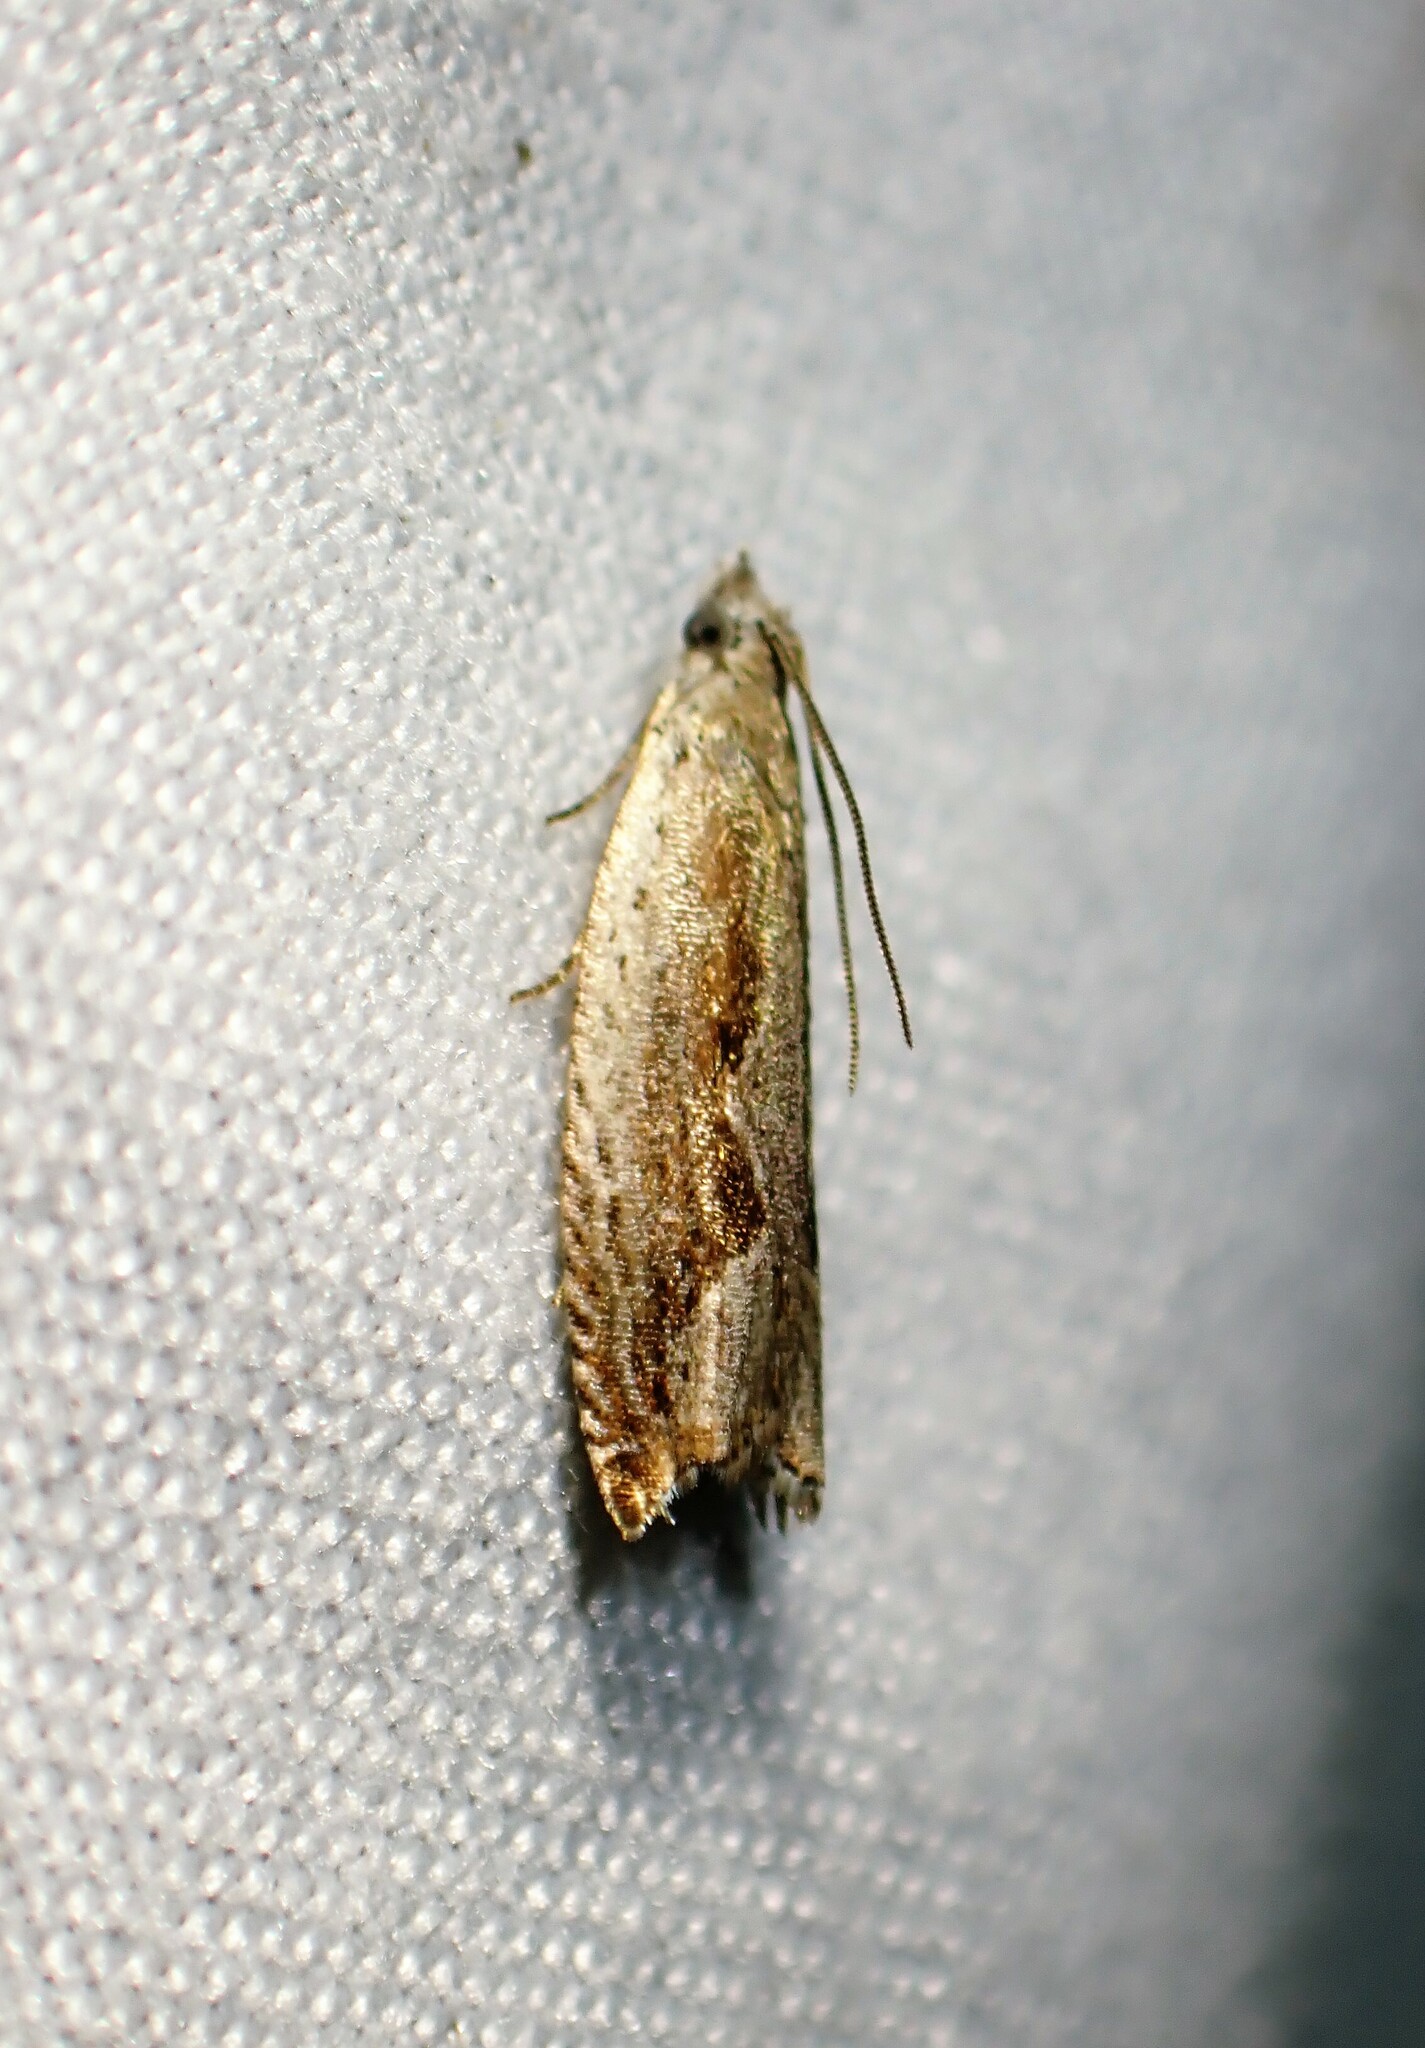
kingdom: Animalia
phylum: Arthropoda
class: Insecta
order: Lepidoptera
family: Tortricidae
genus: Ancylis
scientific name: Ancylis diminuatana
